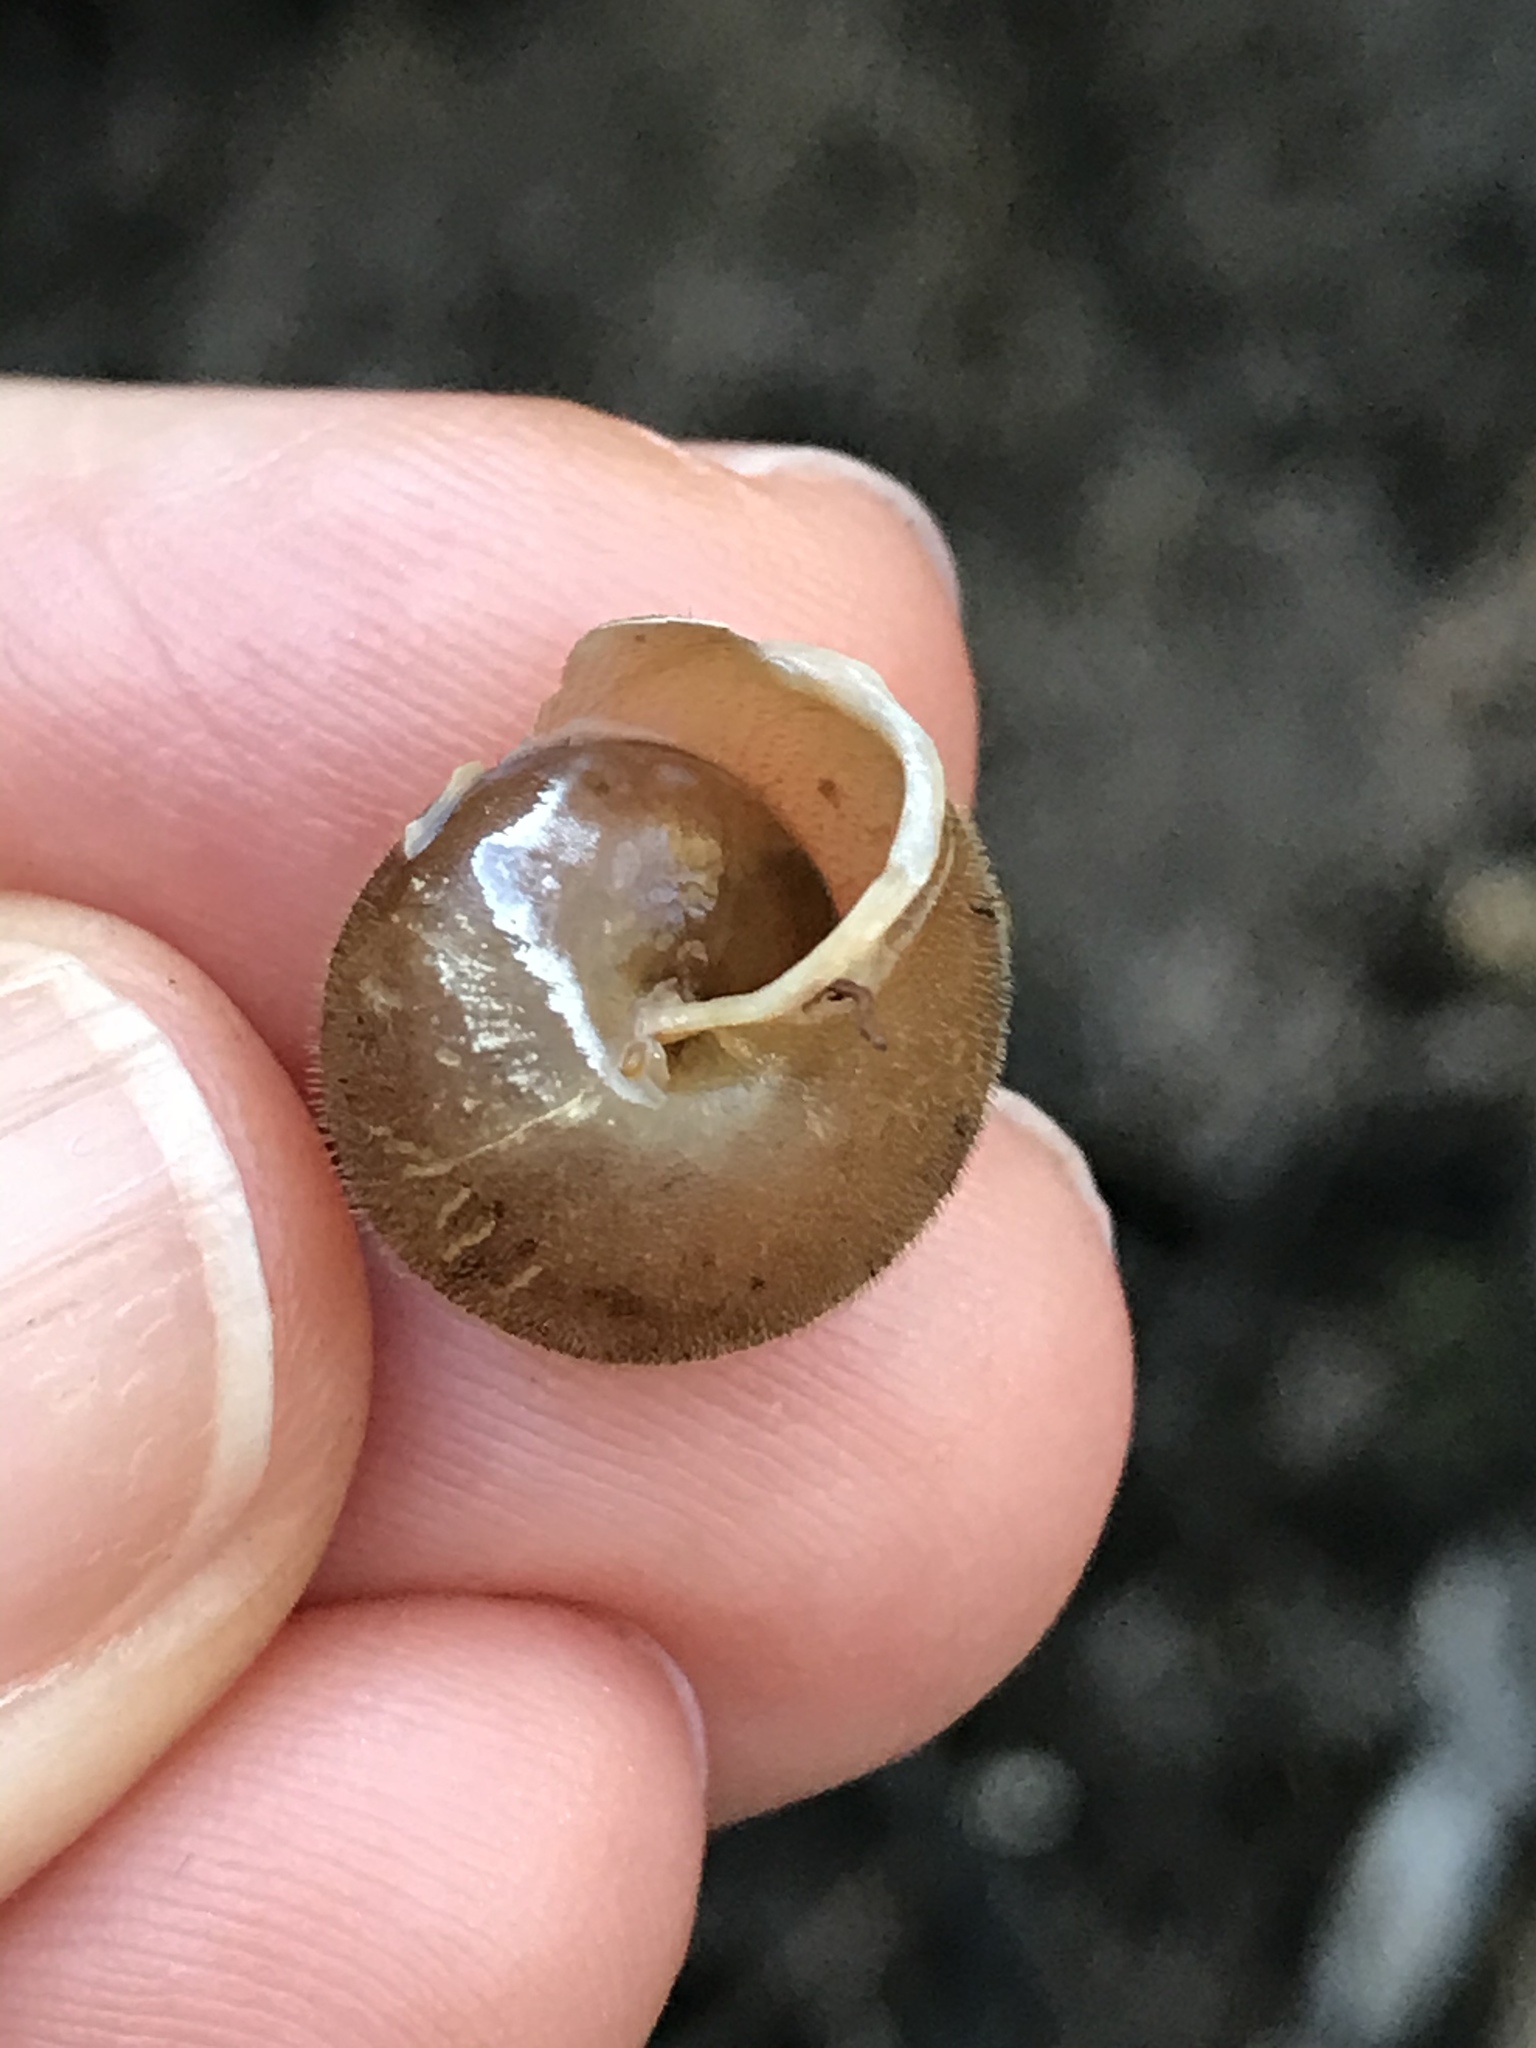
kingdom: Animalia
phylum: Mollusca
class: Gastropoda
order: Stylommatophora
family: Polygyridae
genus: Vespericola
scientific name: Vespericola marinensis
